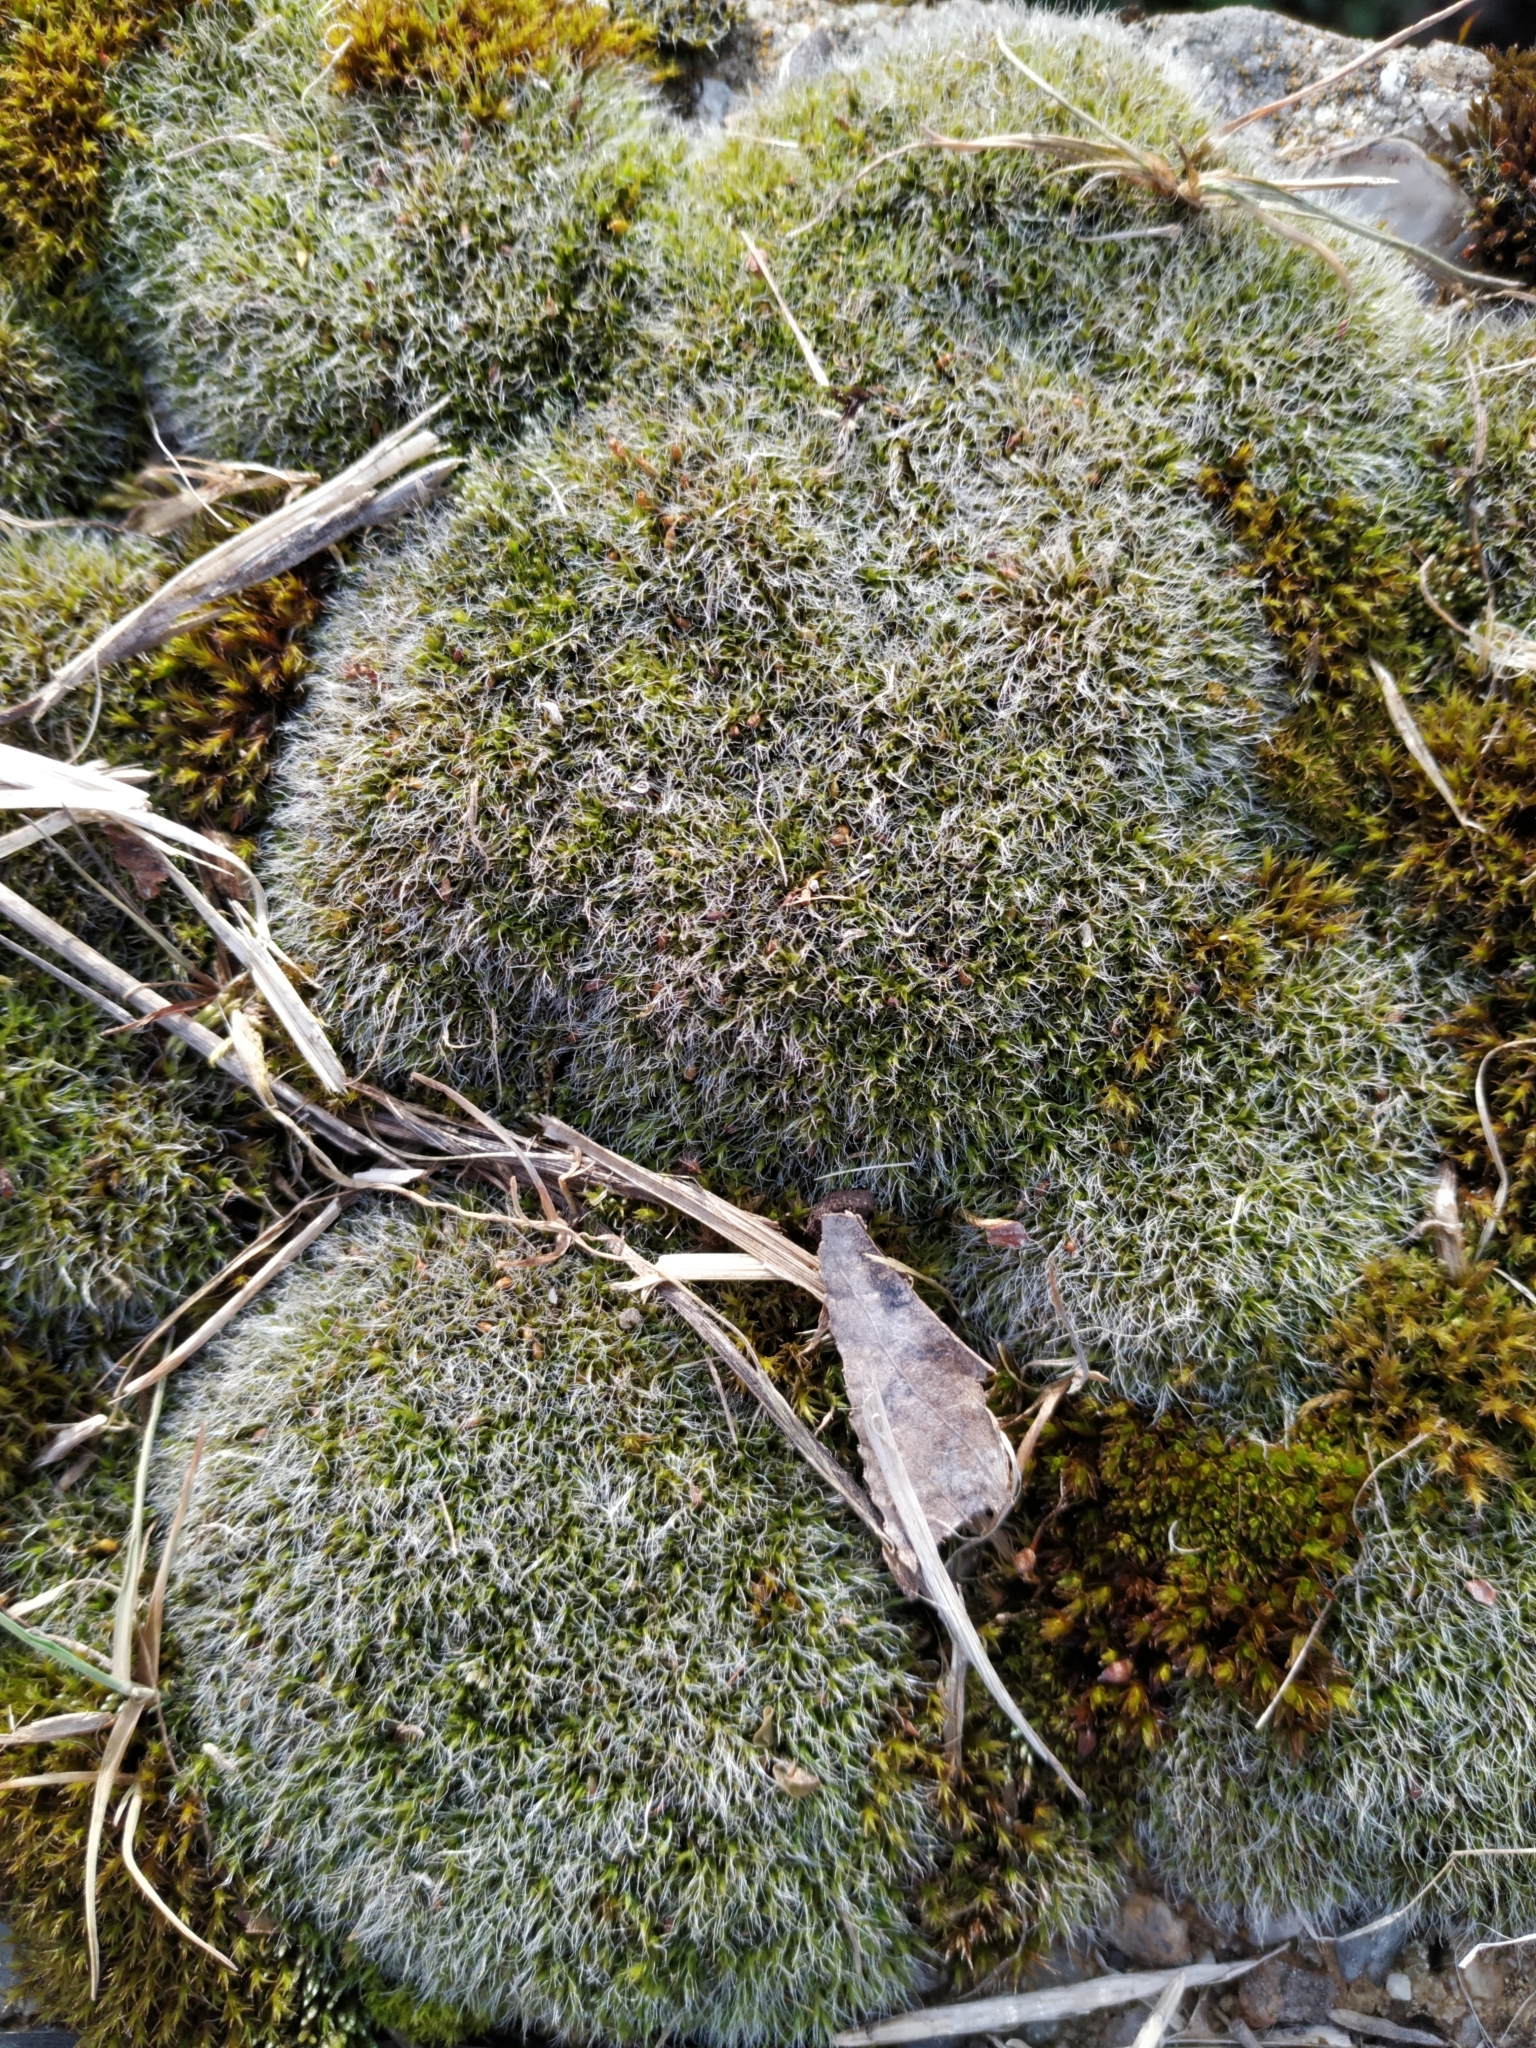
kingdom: Plantae
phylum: Bryophyta
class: Bryopsida
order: Grimmiales
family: Grimmiaceae
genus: Grimmia
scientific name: Grimmia pulvinata
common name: Grey-cushioned grimmia
